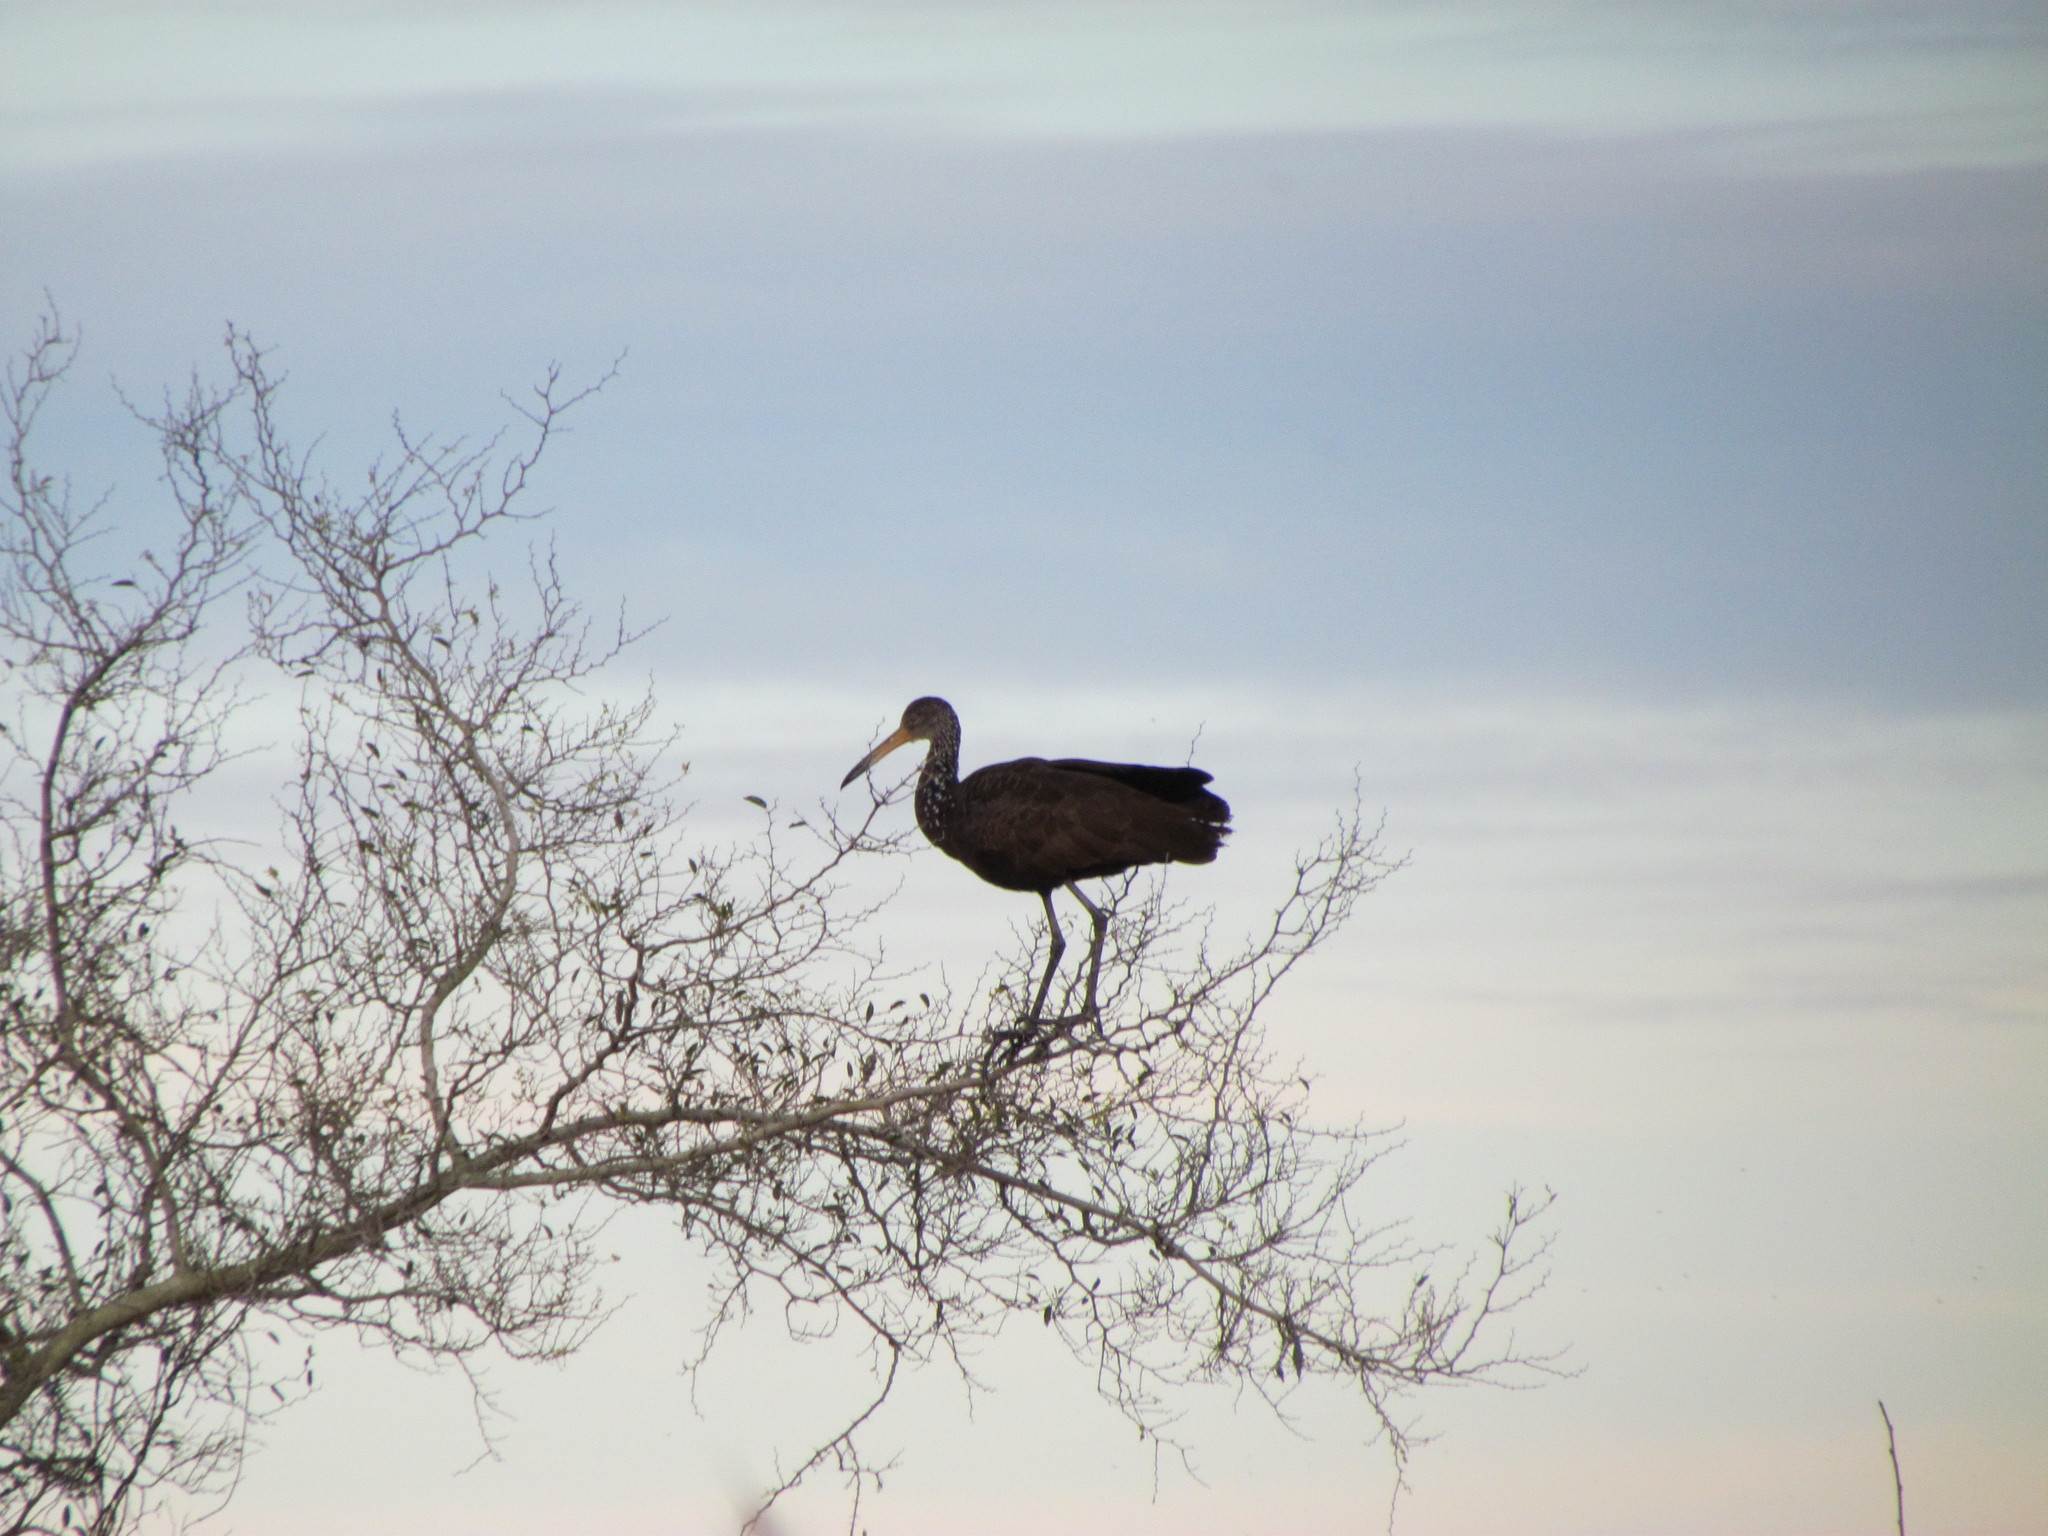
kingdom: Animalia
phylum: Chordata
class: Aves
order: Gruiformes
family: Aramidae
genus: Aramus
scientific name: Aramus guarauna
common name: Limpkin
